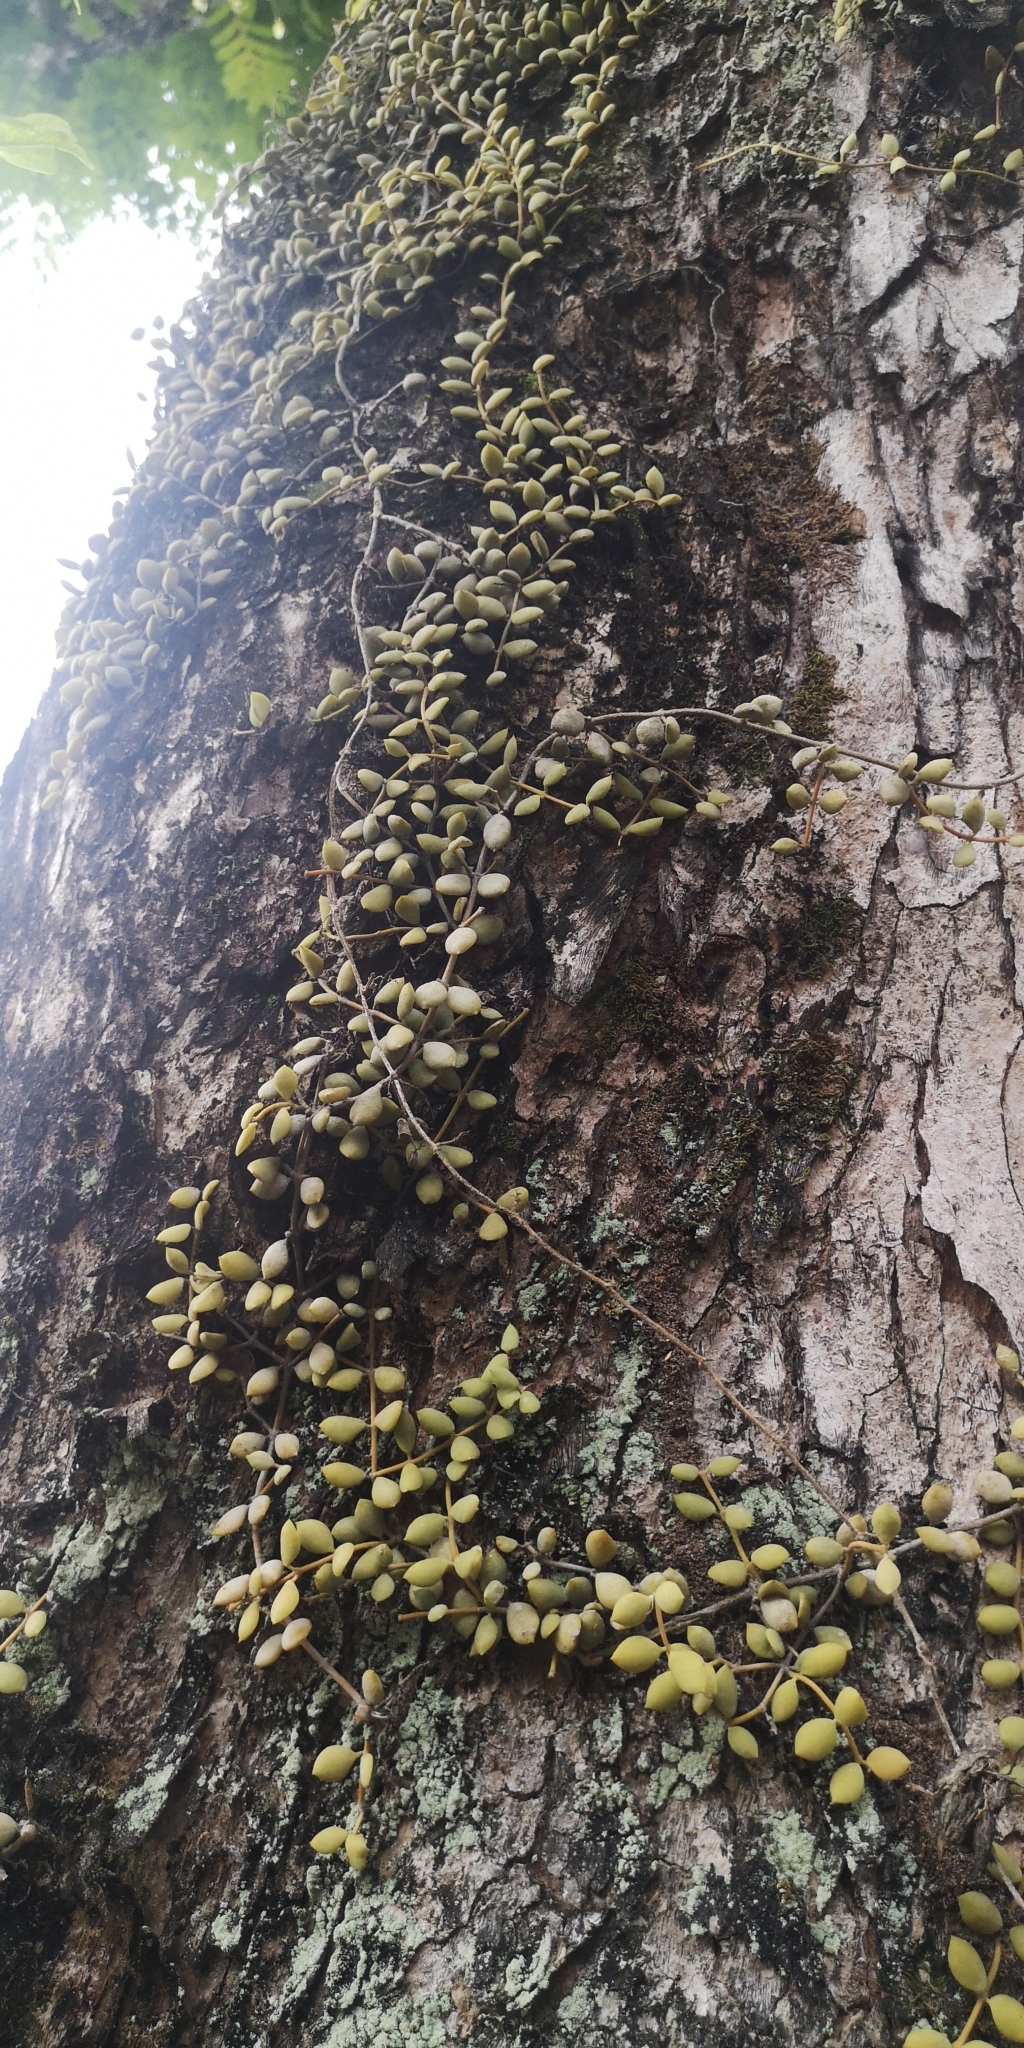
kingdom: Plantae
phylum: Tracheophyta
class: Magnoliopsida
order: Gentianales
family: Apocynaceae
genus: Dischidia
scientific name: Dischidia nummularia
